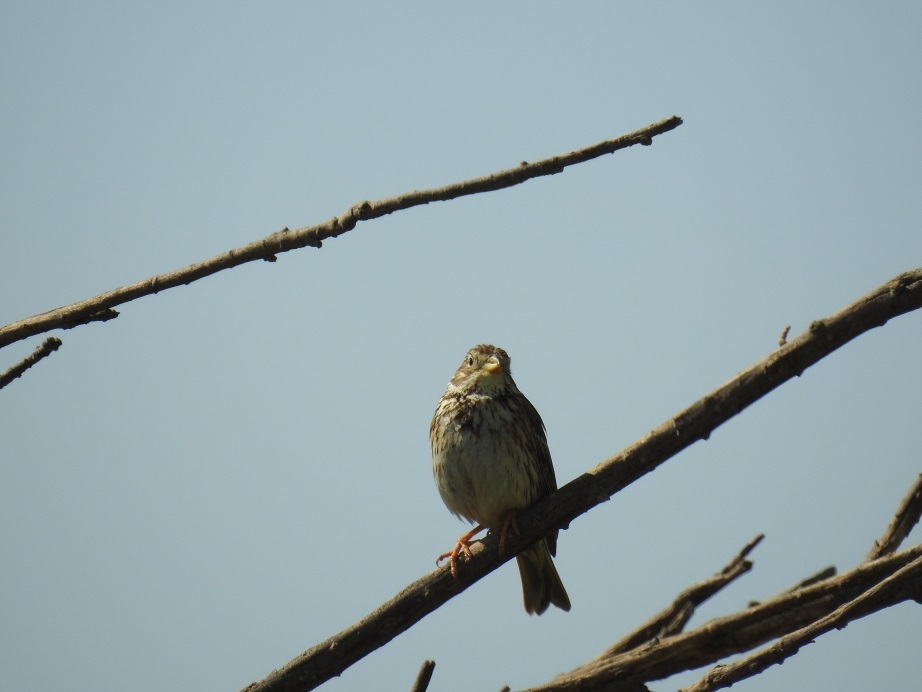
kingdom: Animalia
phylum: Chordata
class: Aves
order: Passeriformes
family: Emberizidae
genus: Emberiza
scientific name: Emberiza calandra
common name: Corn bunting
